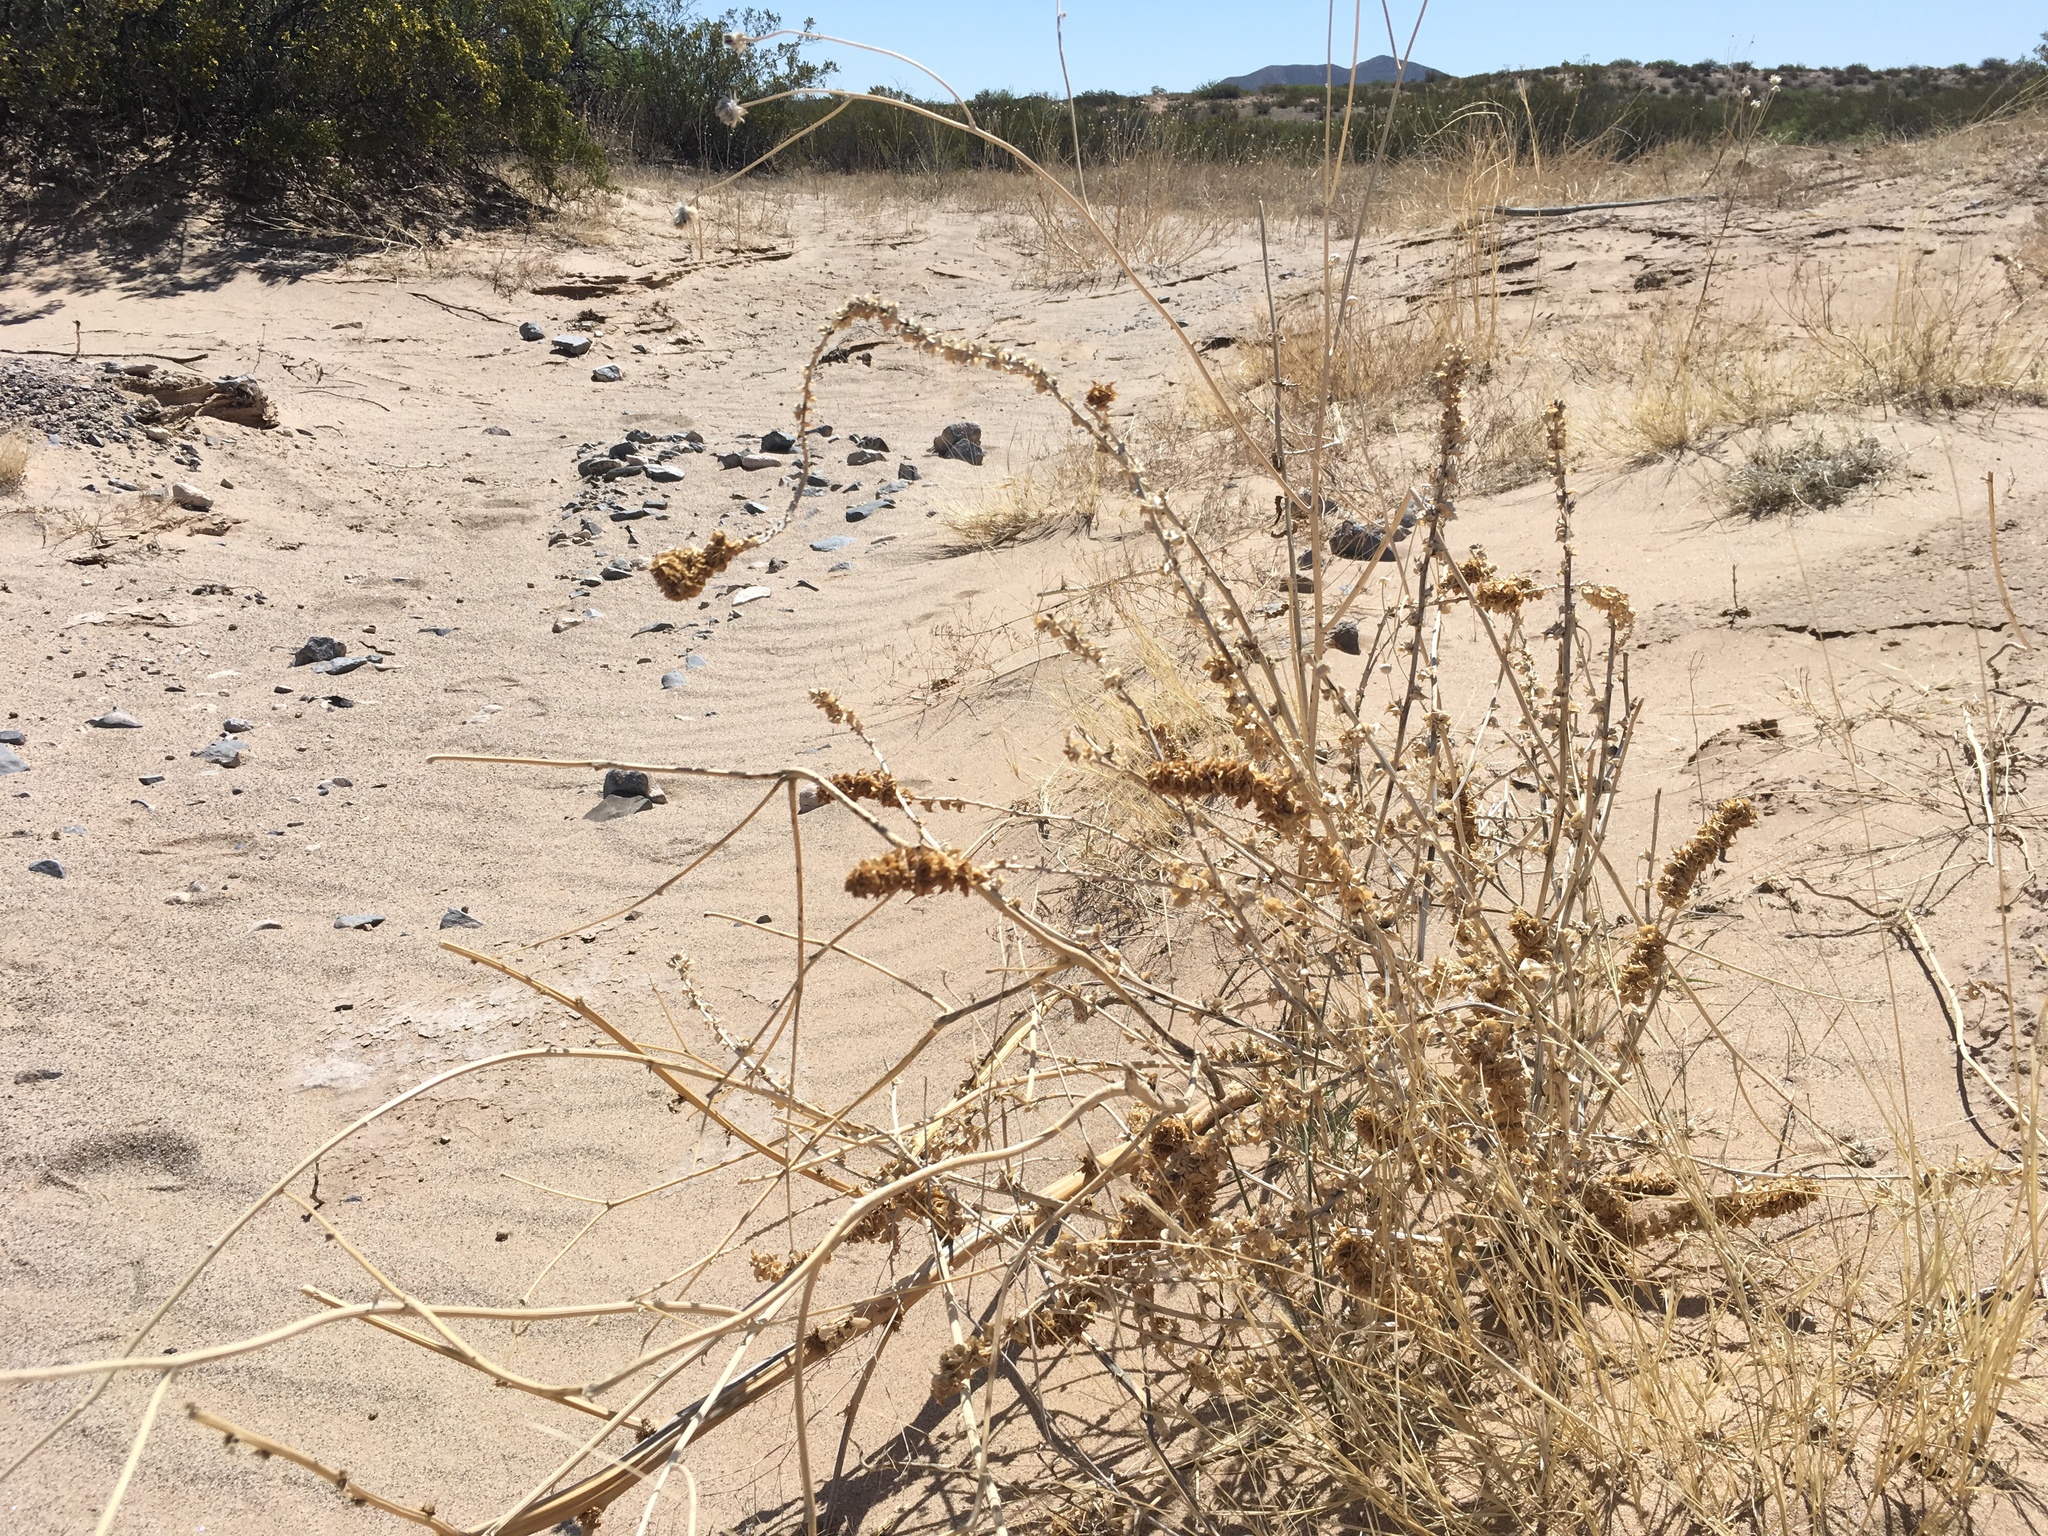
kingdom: Plantae
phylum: Tracheophyta
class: Magnoliopsida
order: Caryophyllales
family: Amaranthaceae
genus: Amaranthus
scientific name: Amaranthus acanthochiton
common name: Greenstripe
